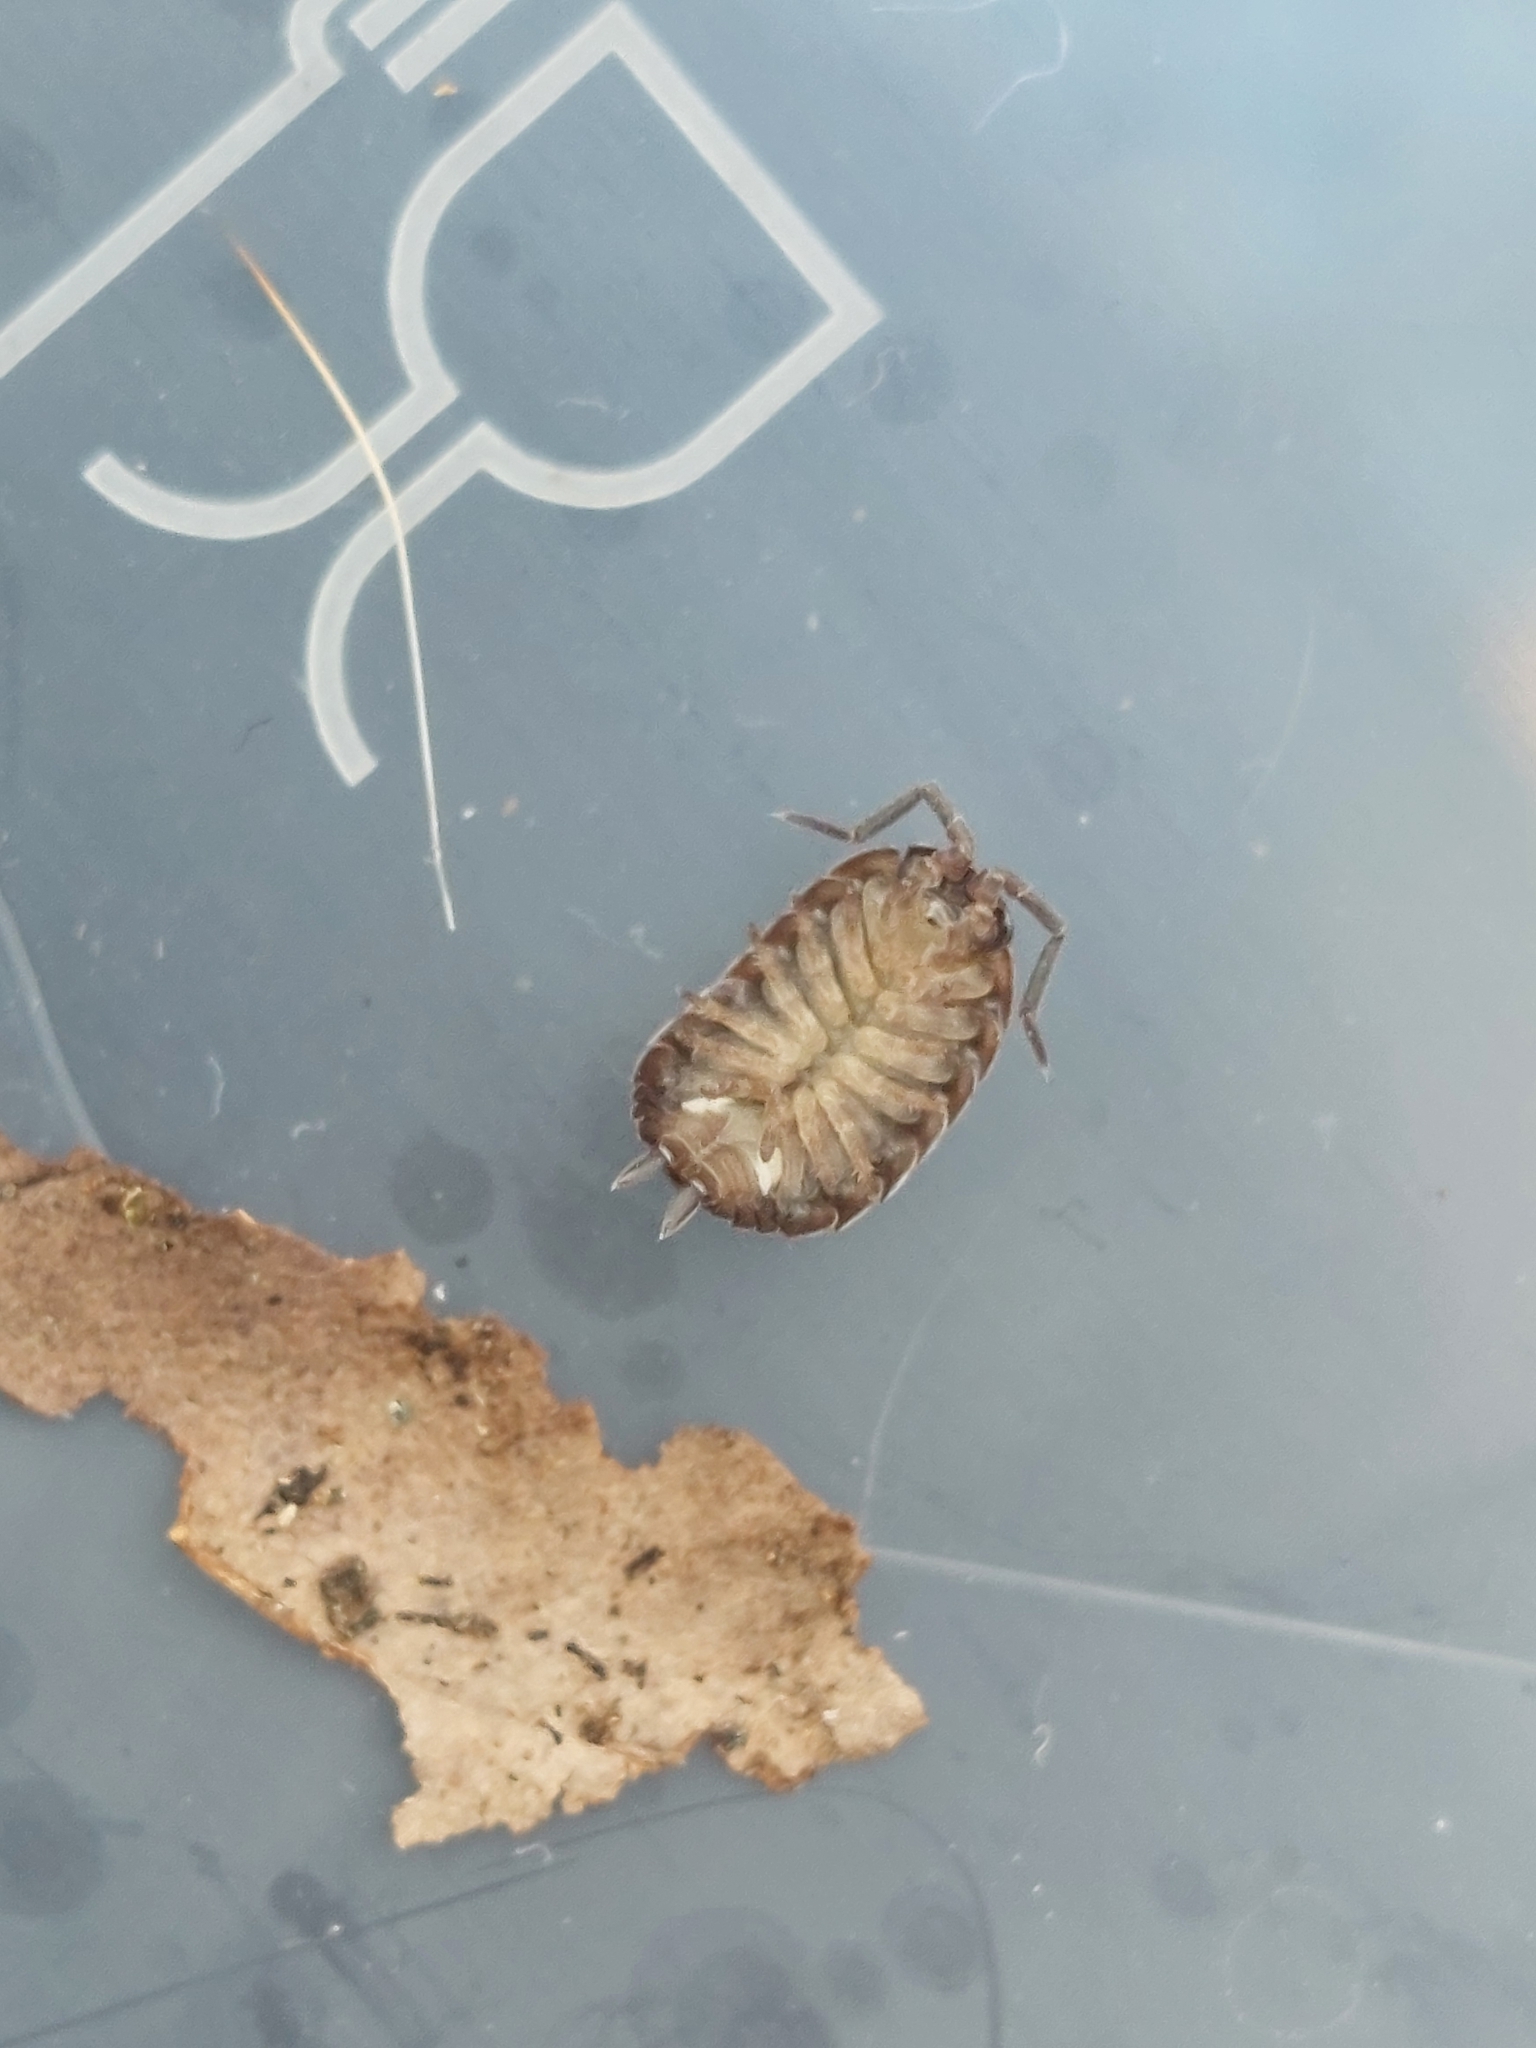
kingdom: Animalia
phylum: Arthropoda
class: Malacostraca
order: Isopoda
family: Porcellionidae
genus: Porcellio
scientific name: Porcellio scaber
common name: Common rough woodlouse
